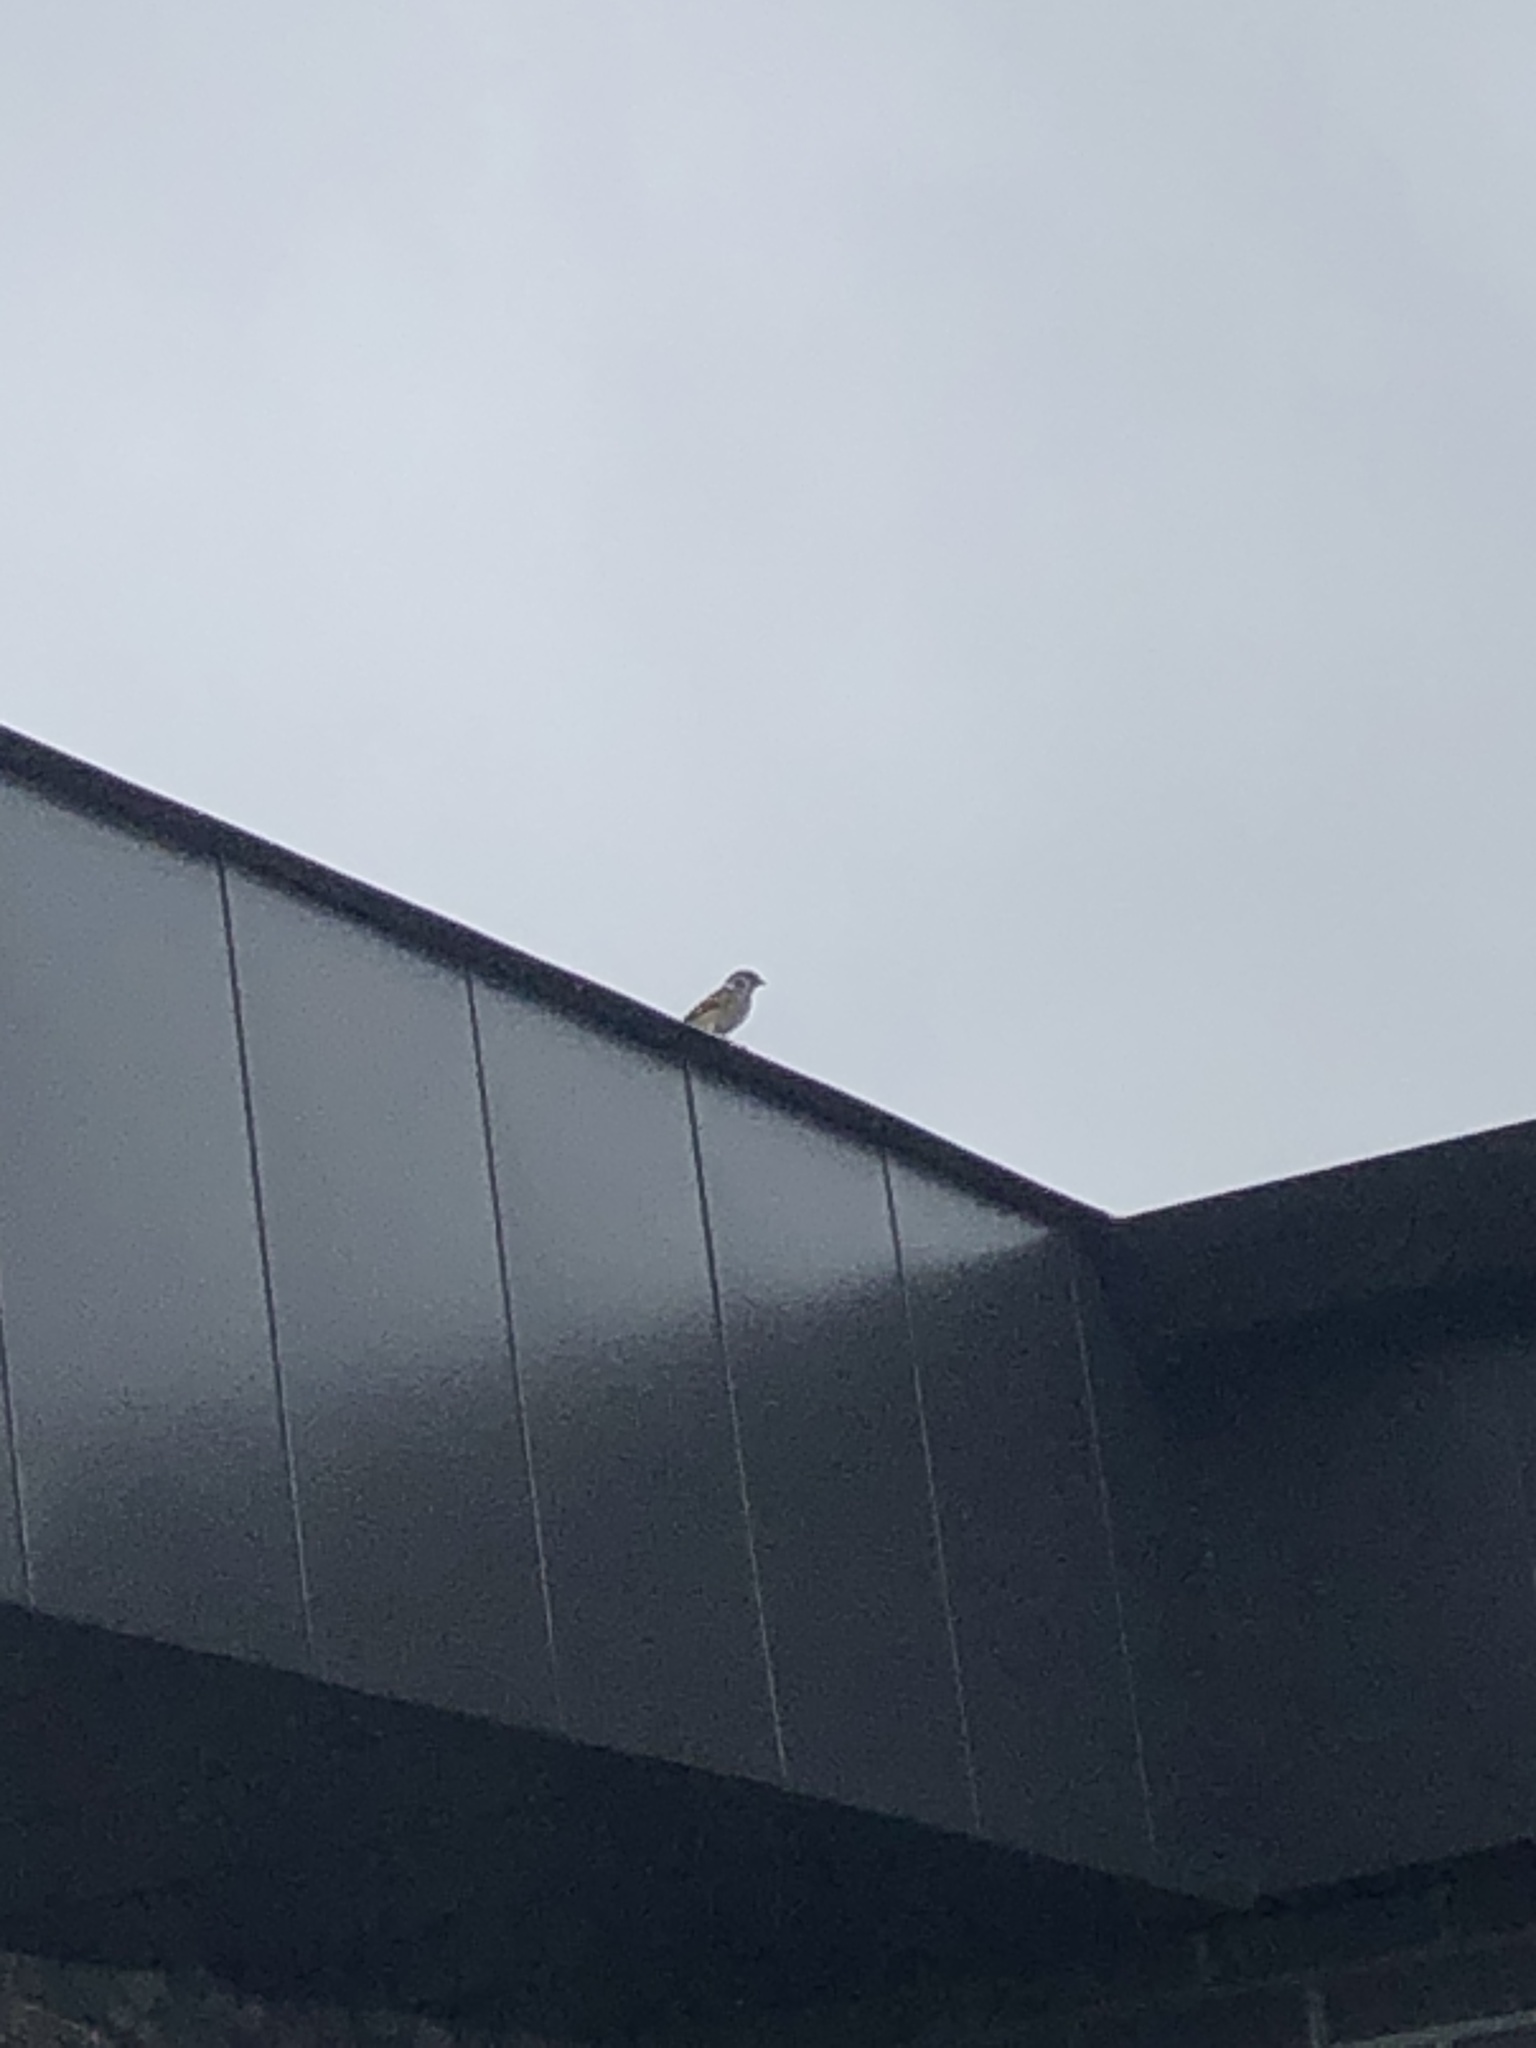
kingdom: Animalia
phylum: Chordata
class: Aves
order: Passeriformes
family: Passeridae
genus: Passer
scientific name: Passer montanus
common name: Eurasian tree sparrow
